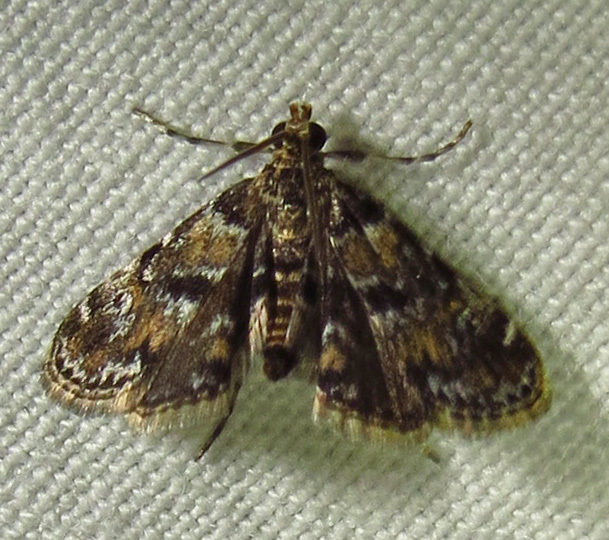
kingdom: Animalia
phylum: Arthropoda
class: Insecta
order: Lepidoptera
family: Crambidae
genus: Elophila
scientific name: Elophila obliteralis
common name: Waterlily leafcutter moth
